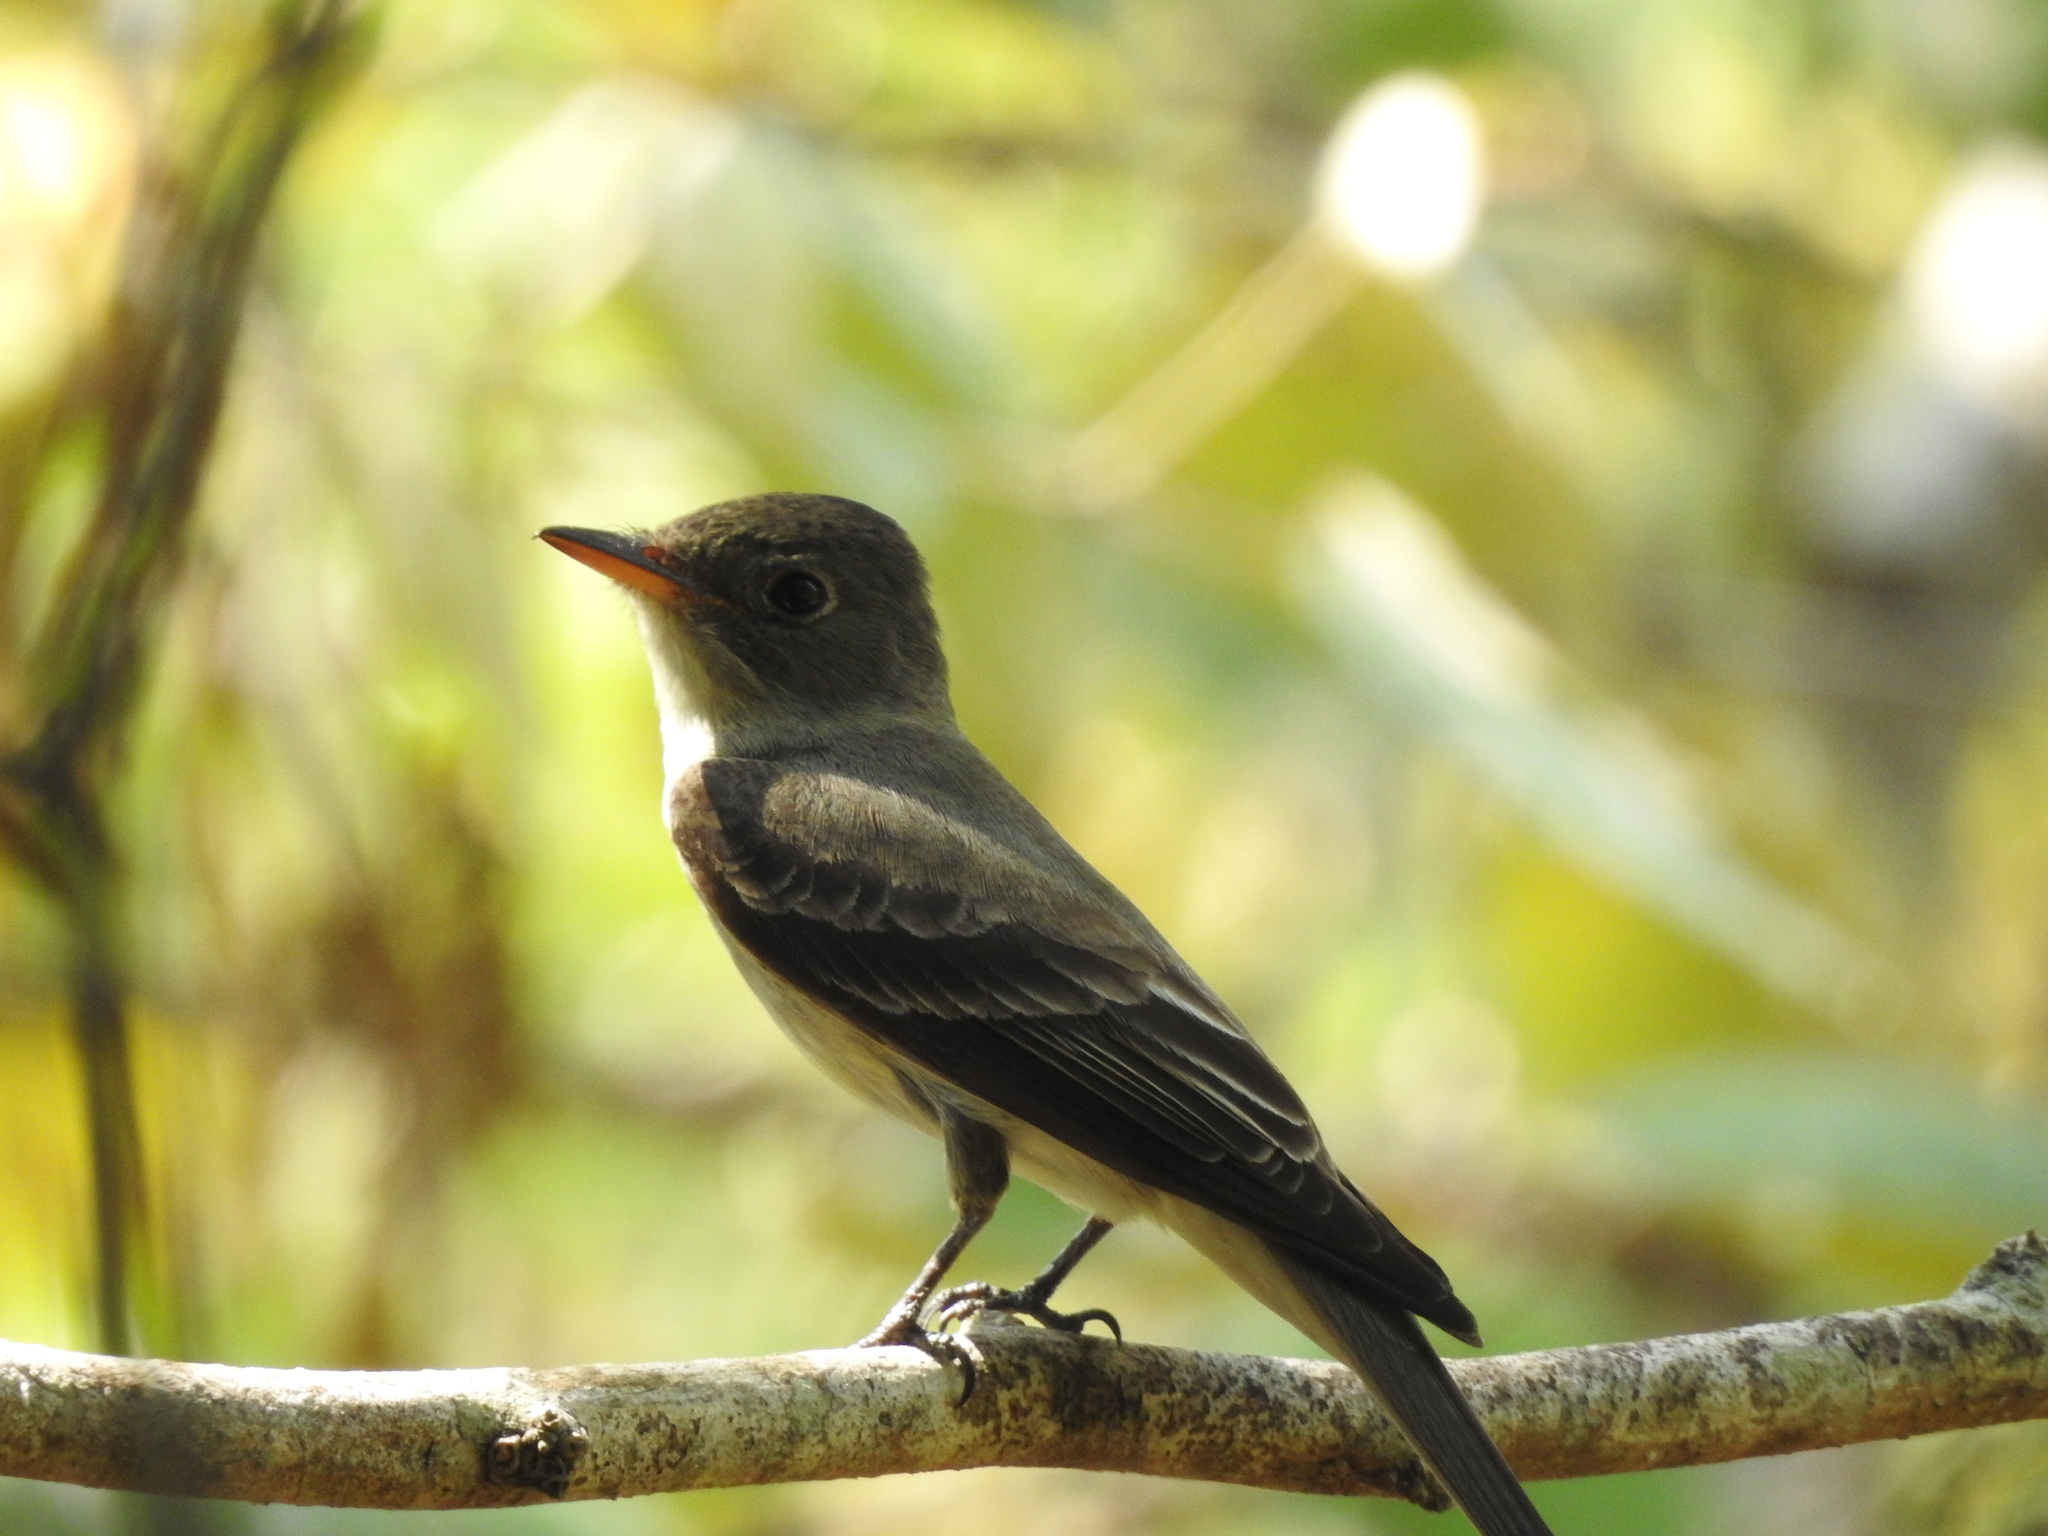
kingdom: Animalia
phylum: Chordata
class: Aves
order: Passeriformes
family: Tyrannidae
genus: Contopus
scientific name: Contopus virens
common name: Eastern wood-pewee
